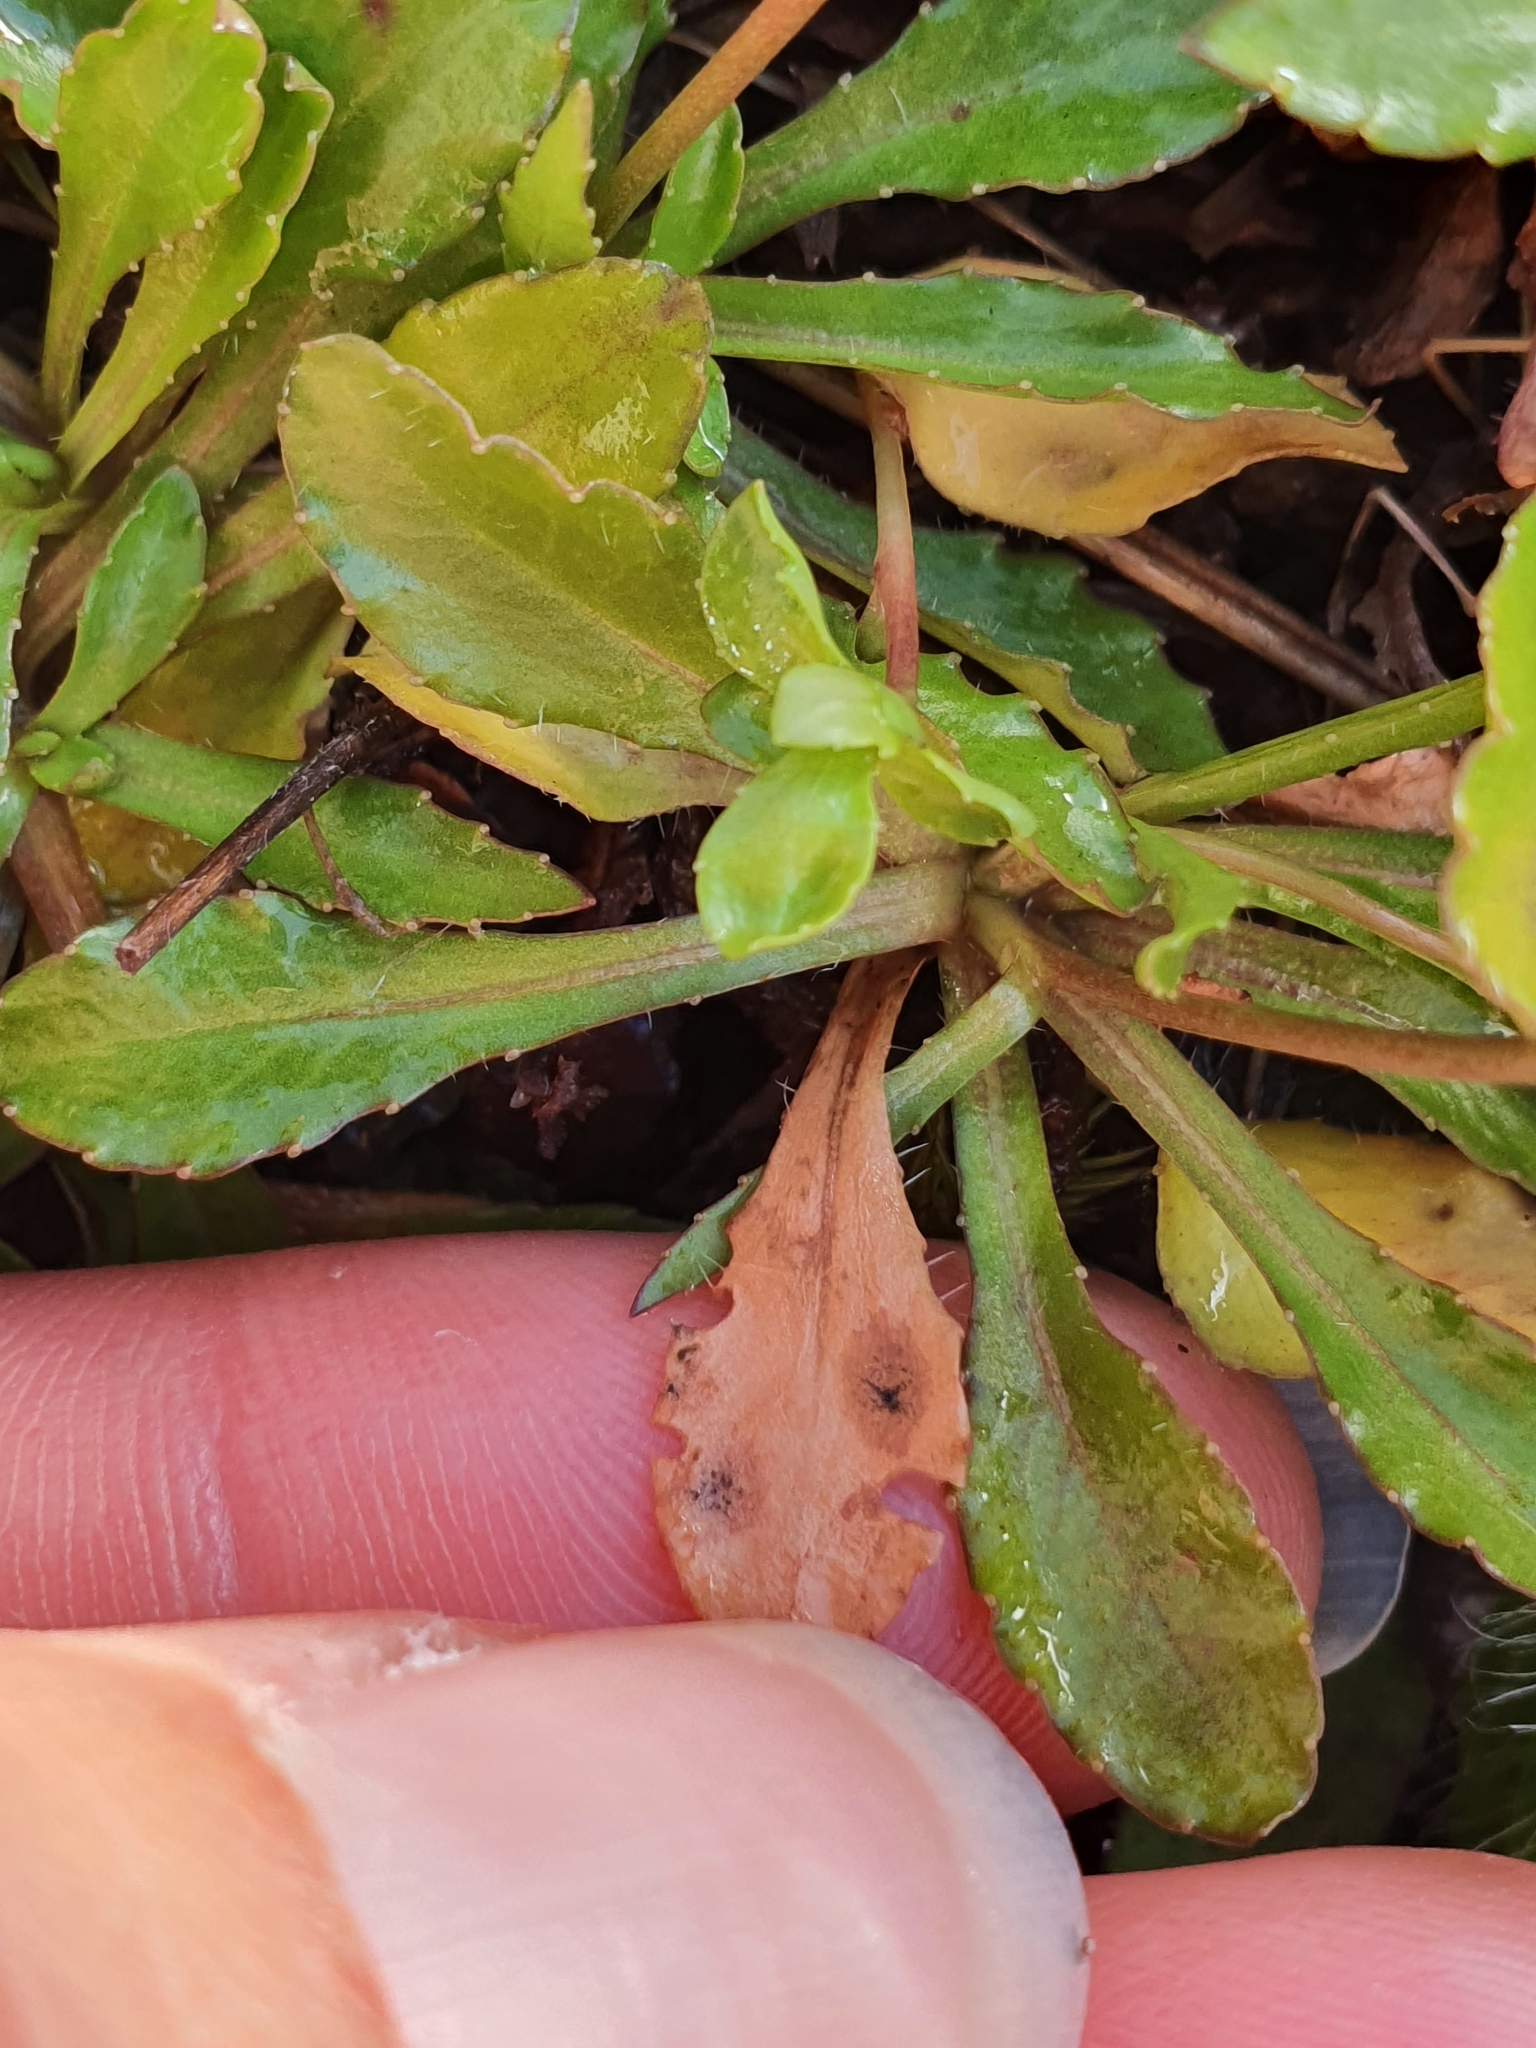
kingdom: Plantae
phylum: Tracheophyta
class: Magnoliopsida
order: Asterales
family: Campanulaceae
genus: Wahlenbergia
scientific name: Wahlenbergia albomarginata
